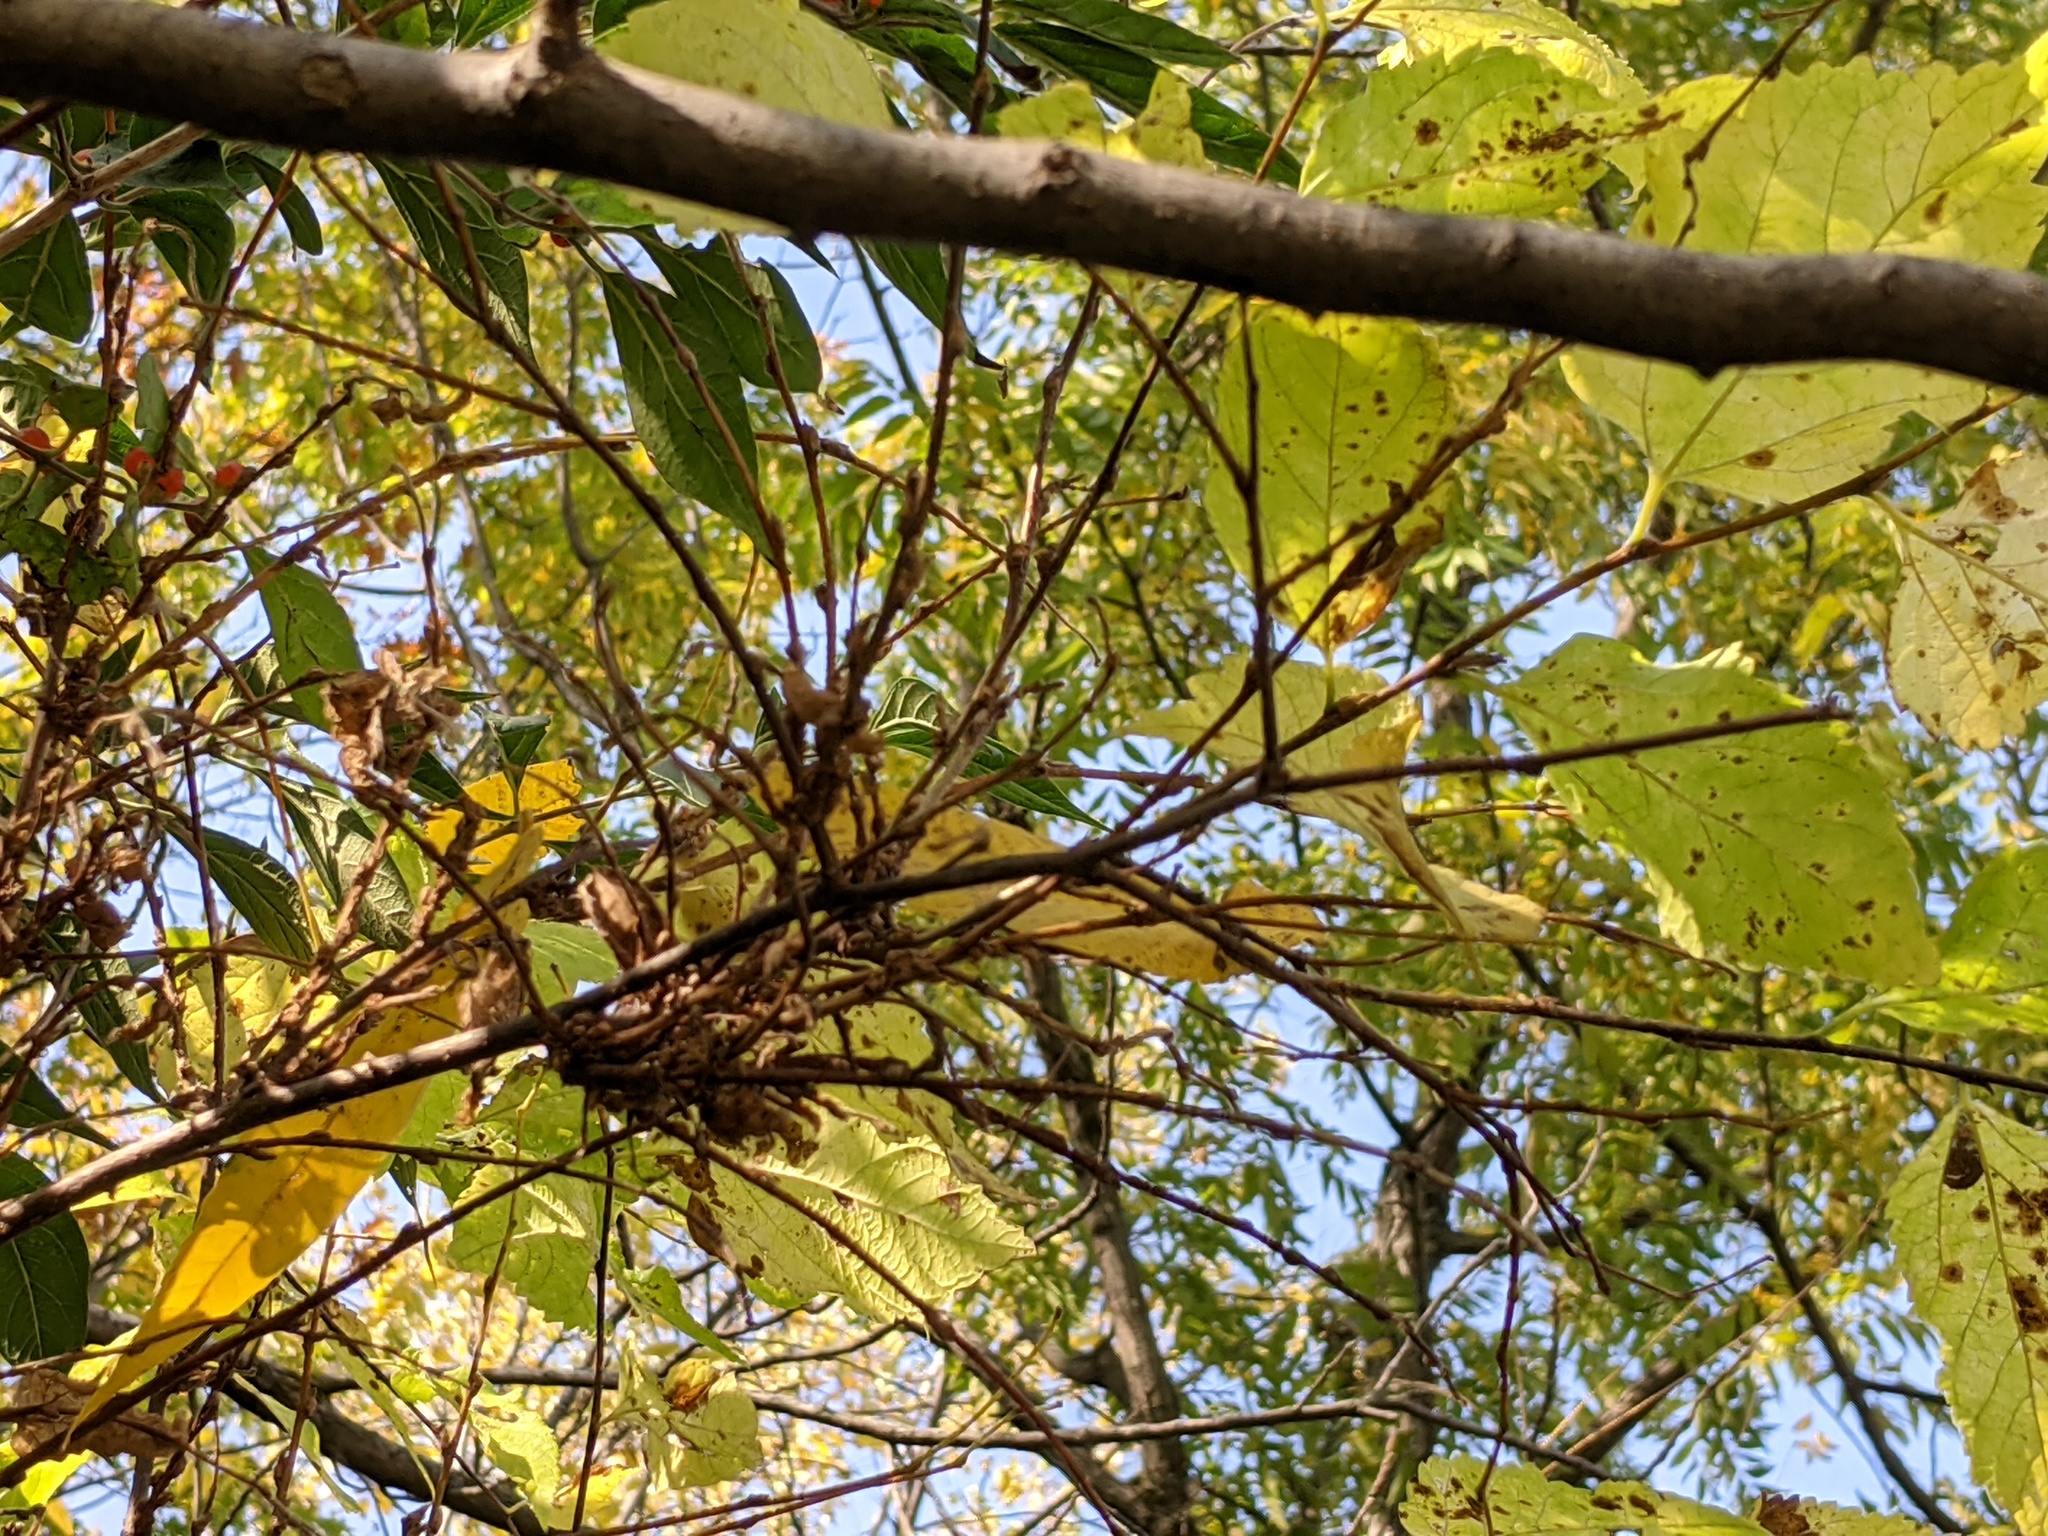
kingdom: Animalia
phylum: Arthropoda
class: Arachnida
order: Trombidiformes
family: Eriophyidae
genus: Aceria
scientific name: Aceria
